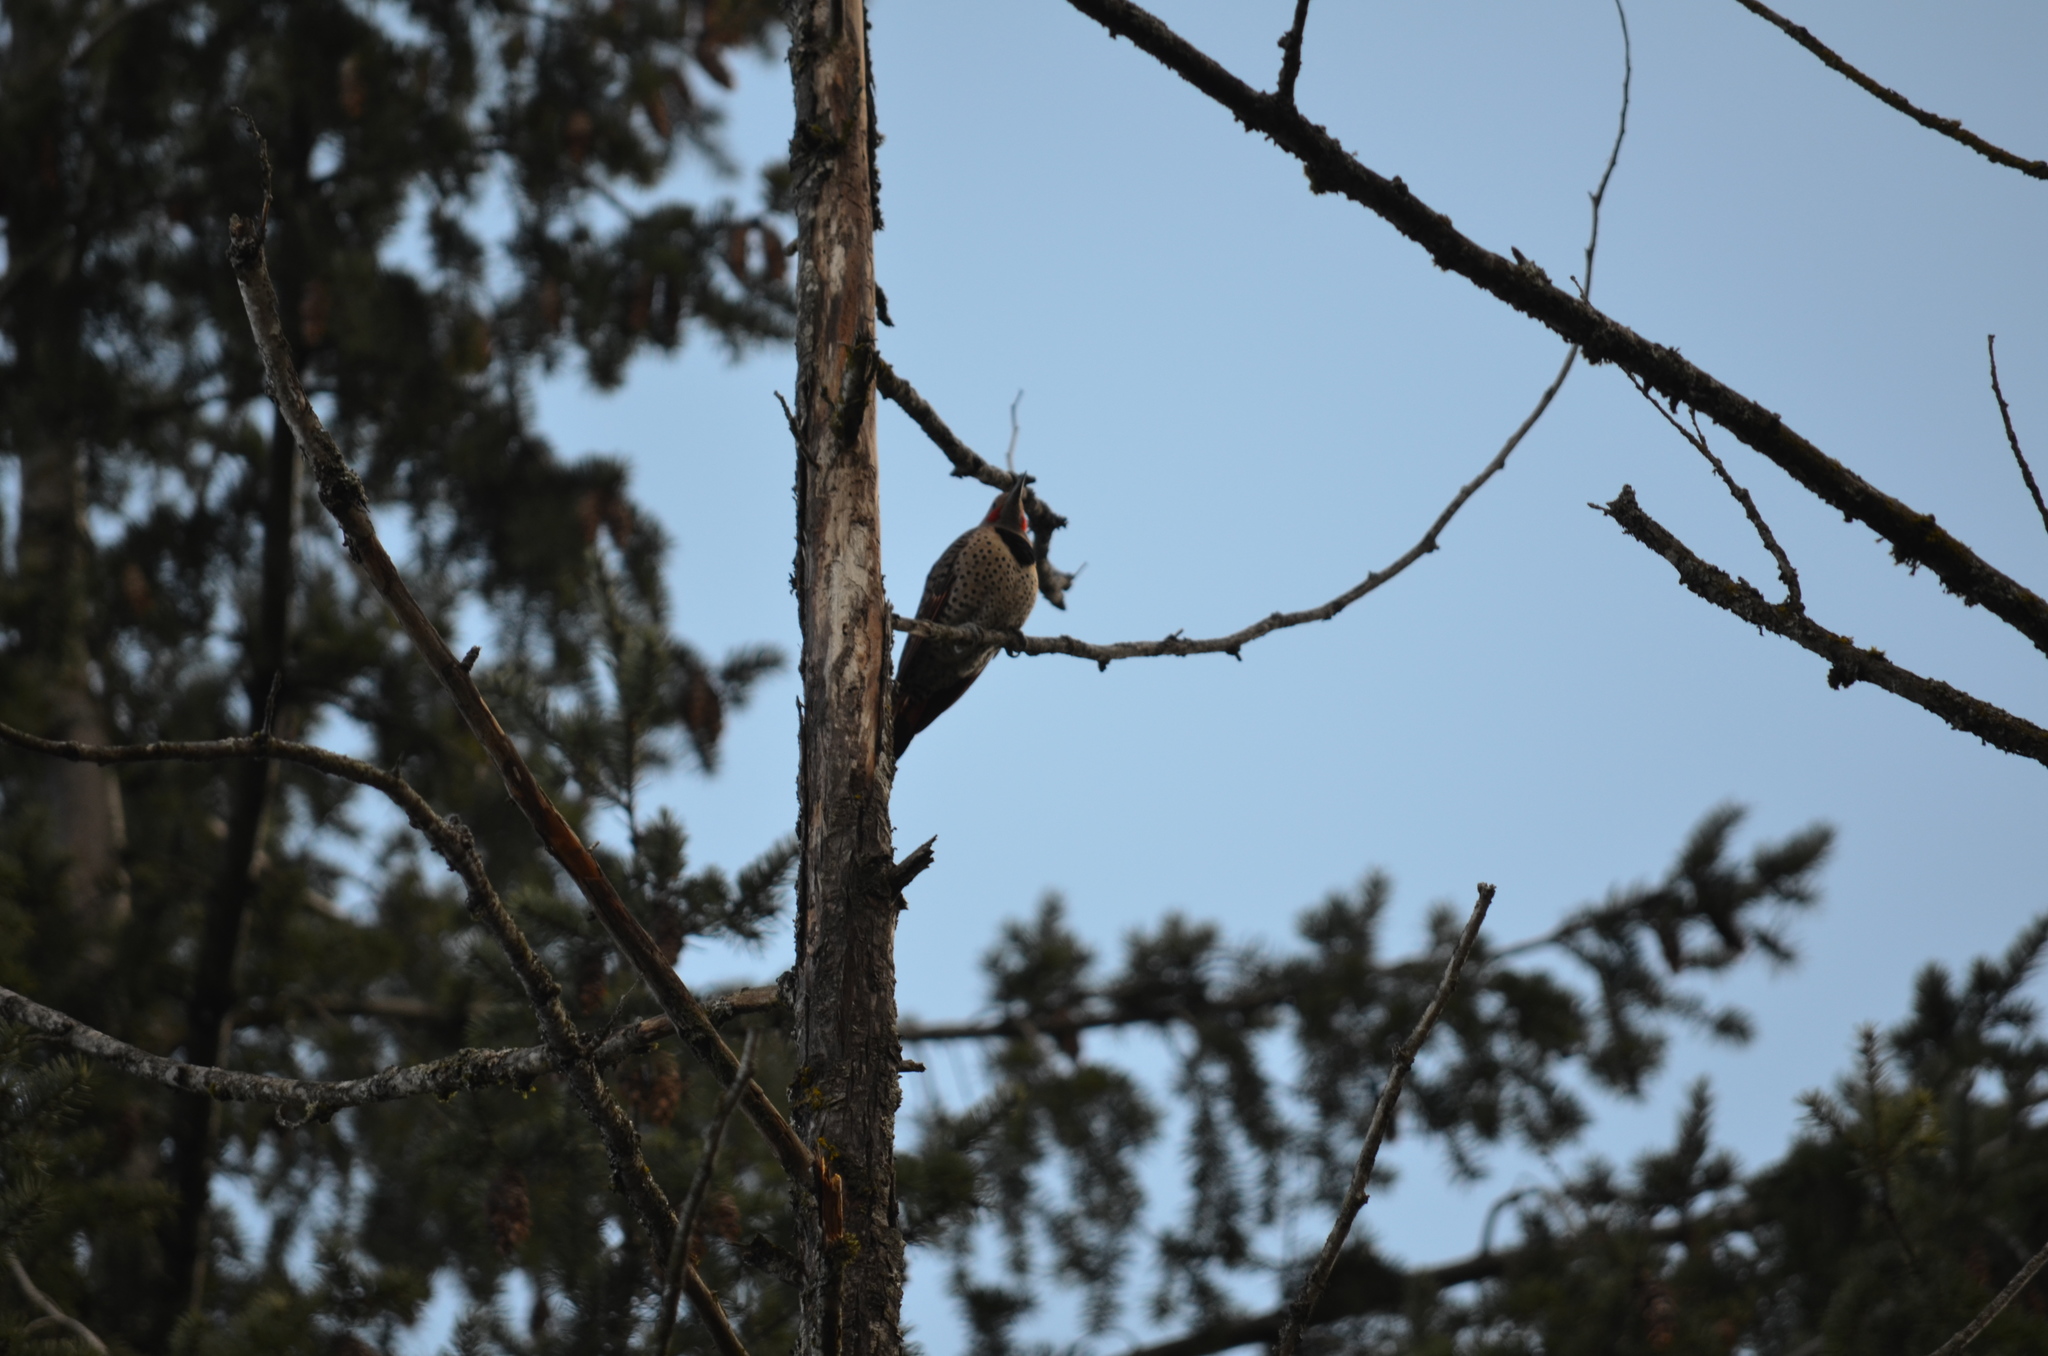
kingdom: Animalia
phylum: Chordata
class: Aves
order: Piciformes
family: Picidae
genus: Colaptes
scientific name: Colaptes auratus
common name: Northern flicker
